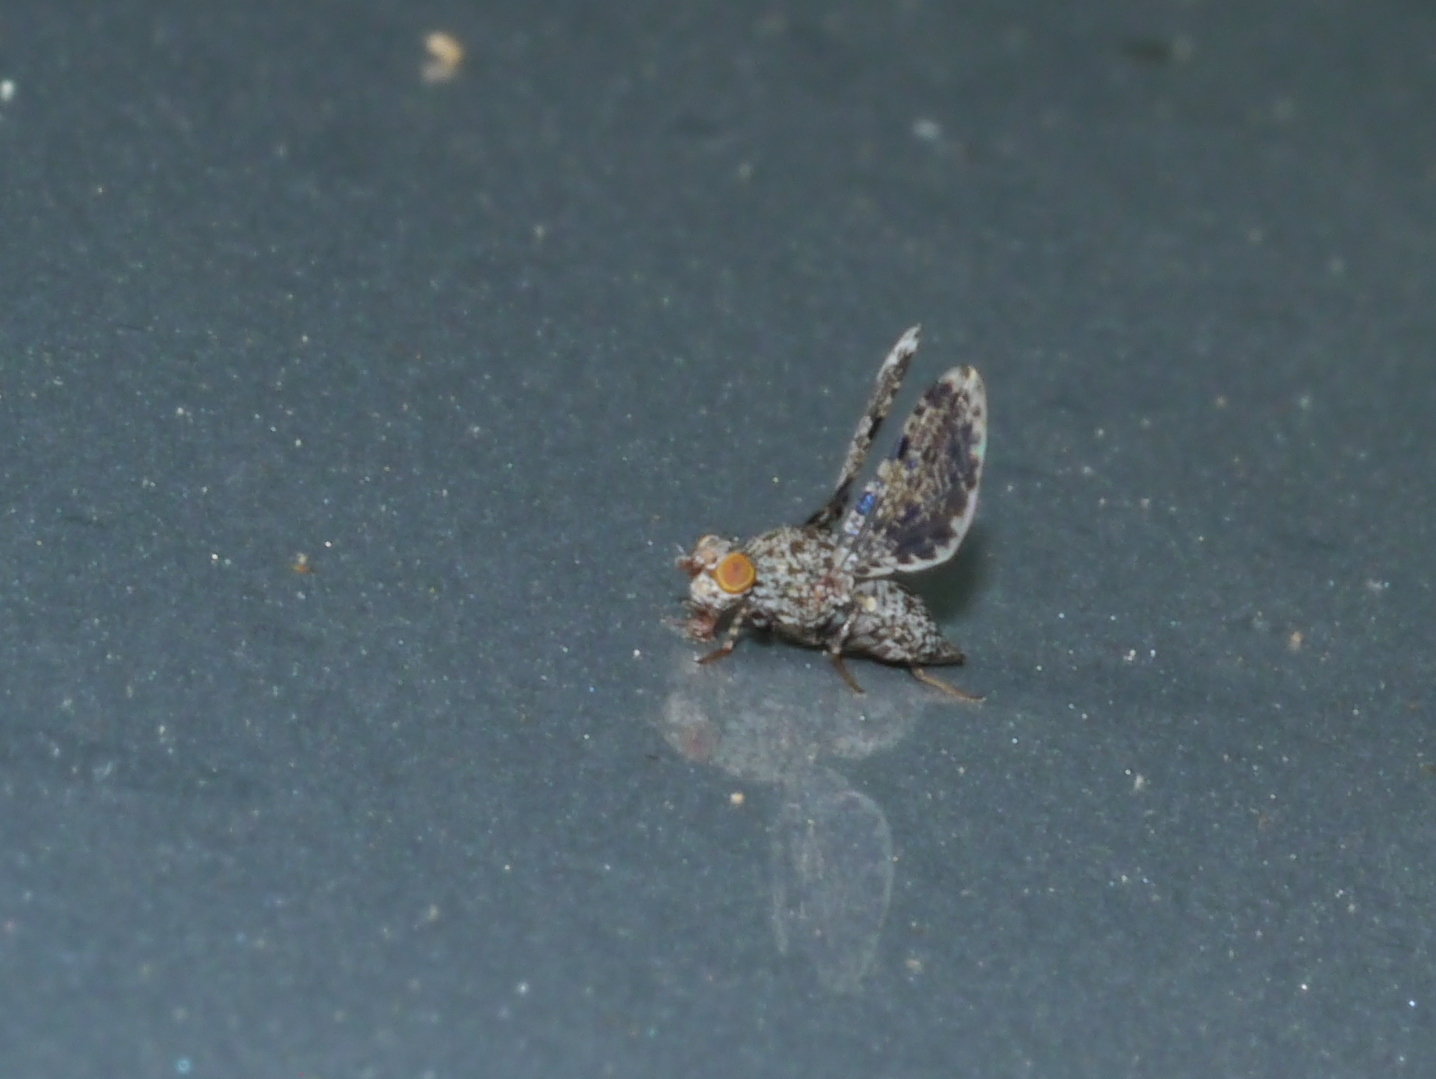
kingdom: Animalia
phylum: Arthropoda
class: Insecta
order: Diptera
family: Ulidiidae
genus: Callopistromyia
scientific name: Callopistromyia annulipes
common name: Peacock fly
